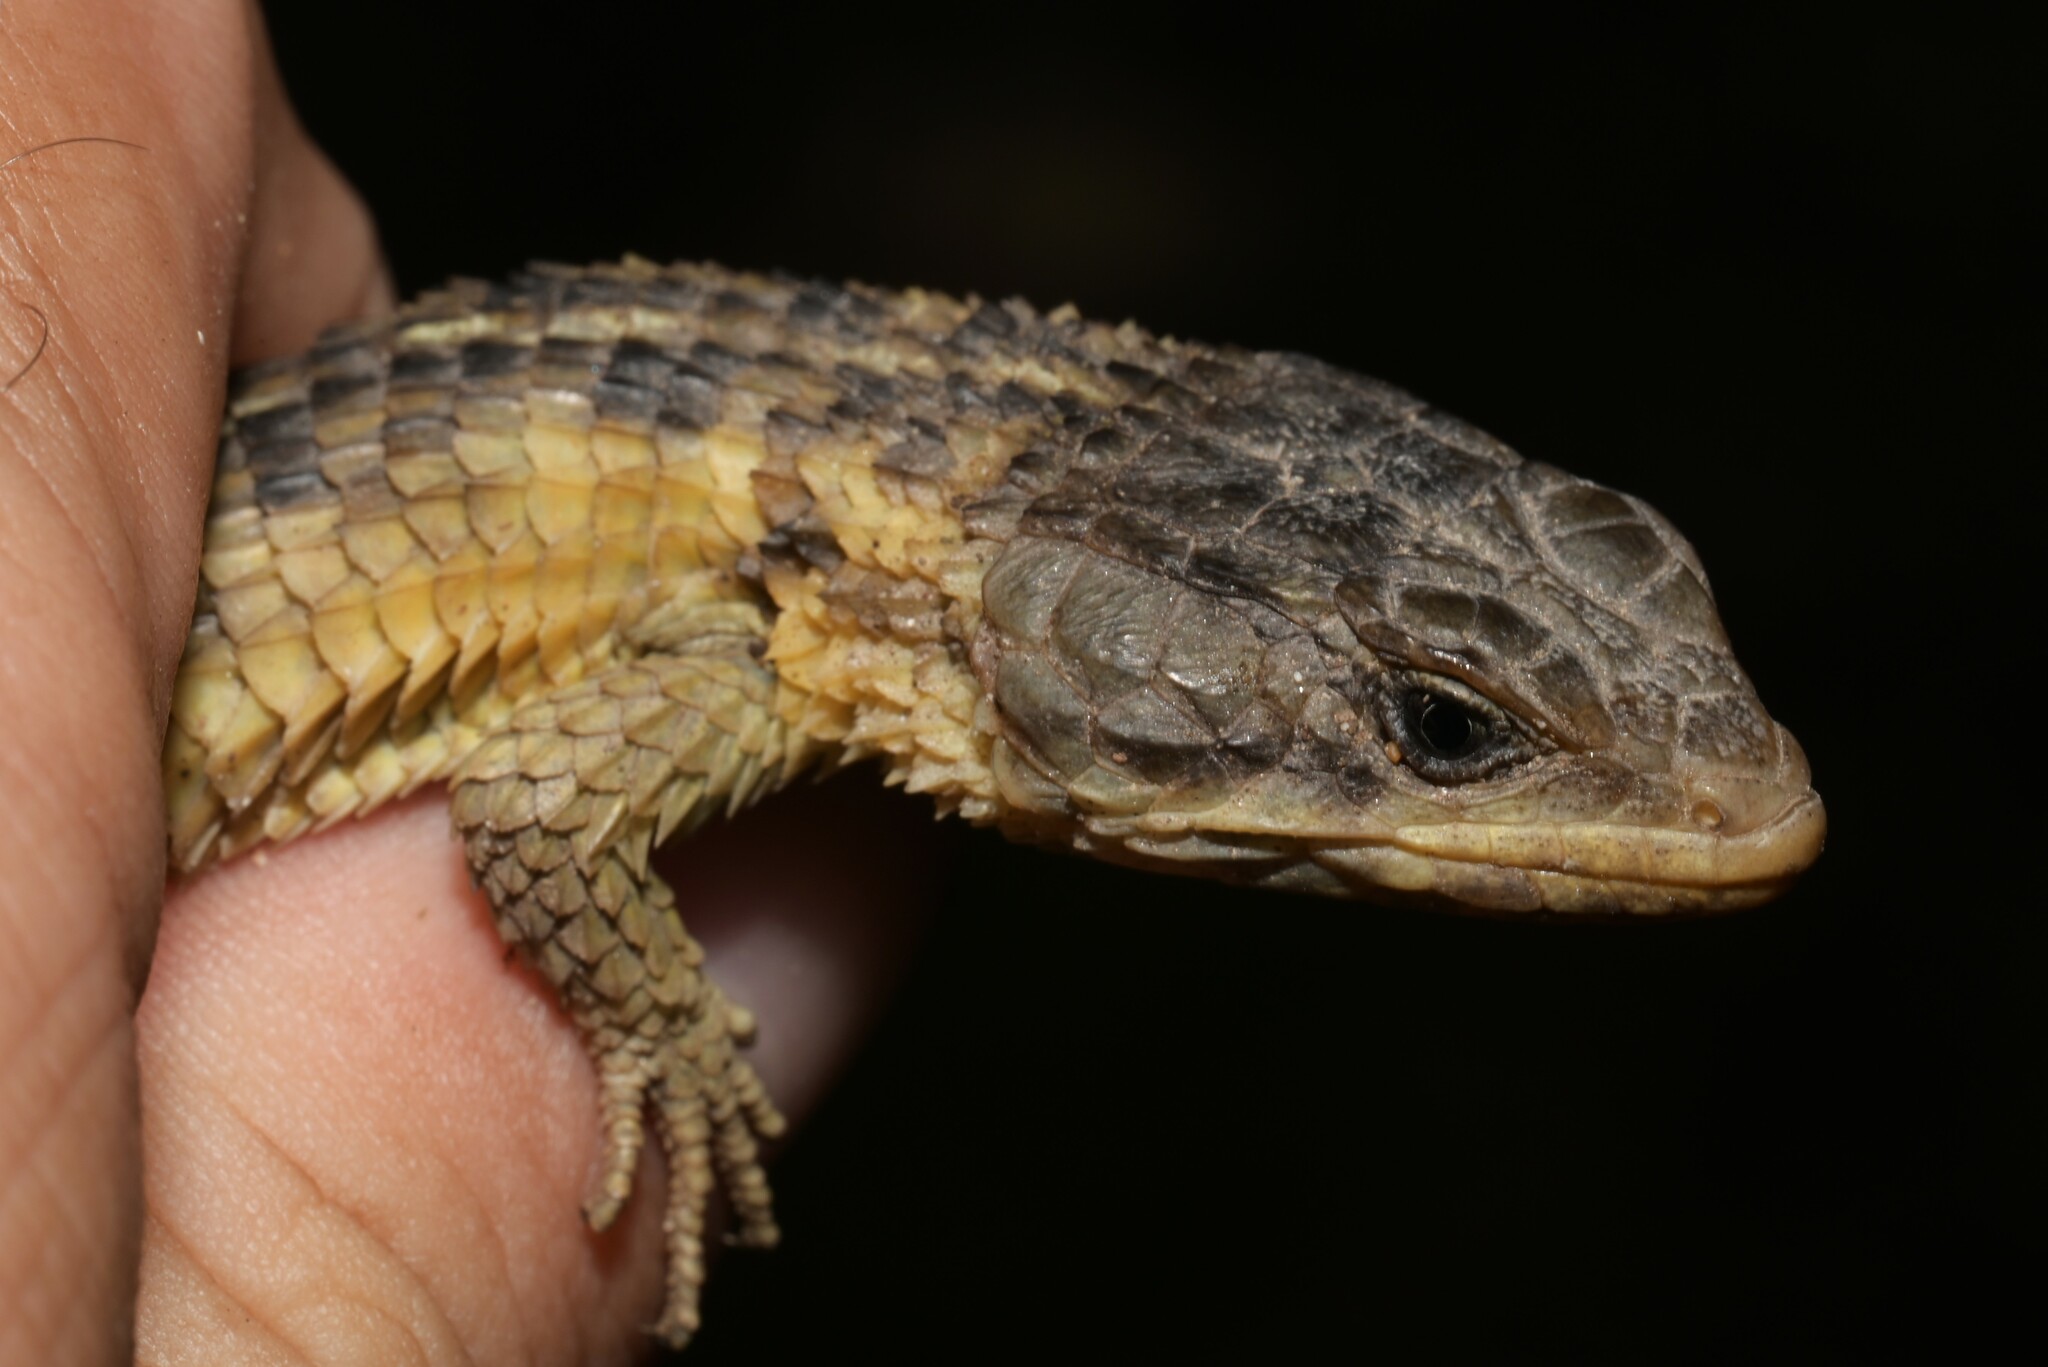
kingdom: Animalia
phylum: Chordata
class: Squamata
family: Cordylidae
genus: Cordylus
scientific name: Cordylus cordylus
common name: Cape girdled lizard
